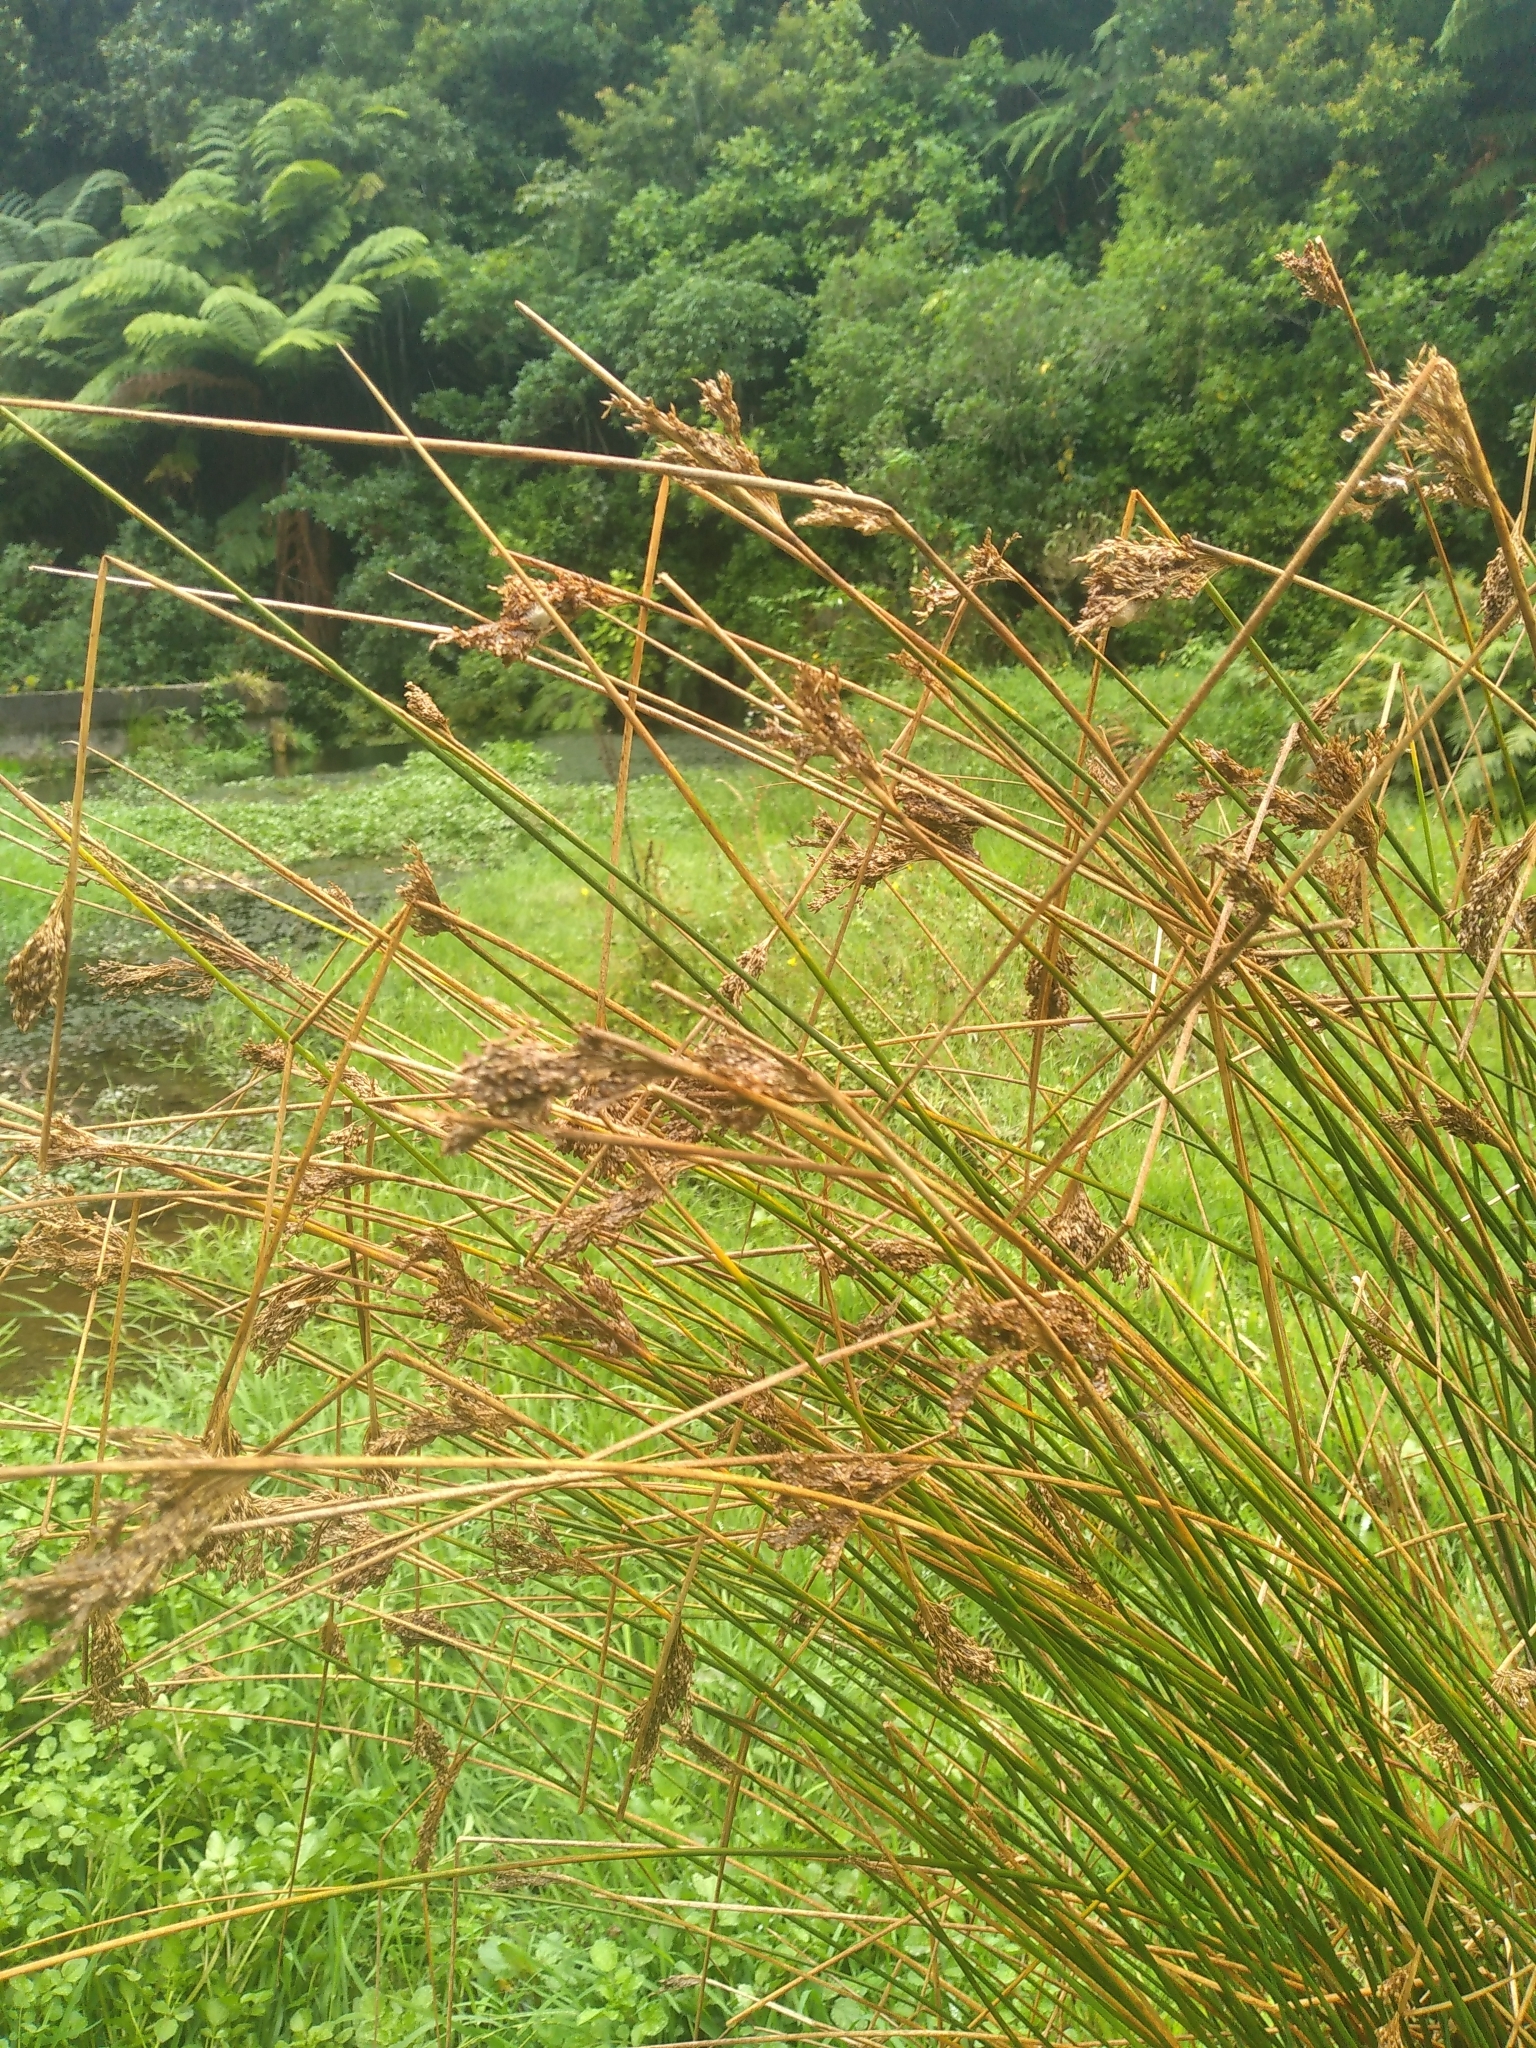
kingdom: Plantae
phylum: Tracheophyta
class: Liliopsida
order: Poales
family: Juncaceae
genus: Juncus
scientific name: Juncus sarophorus
